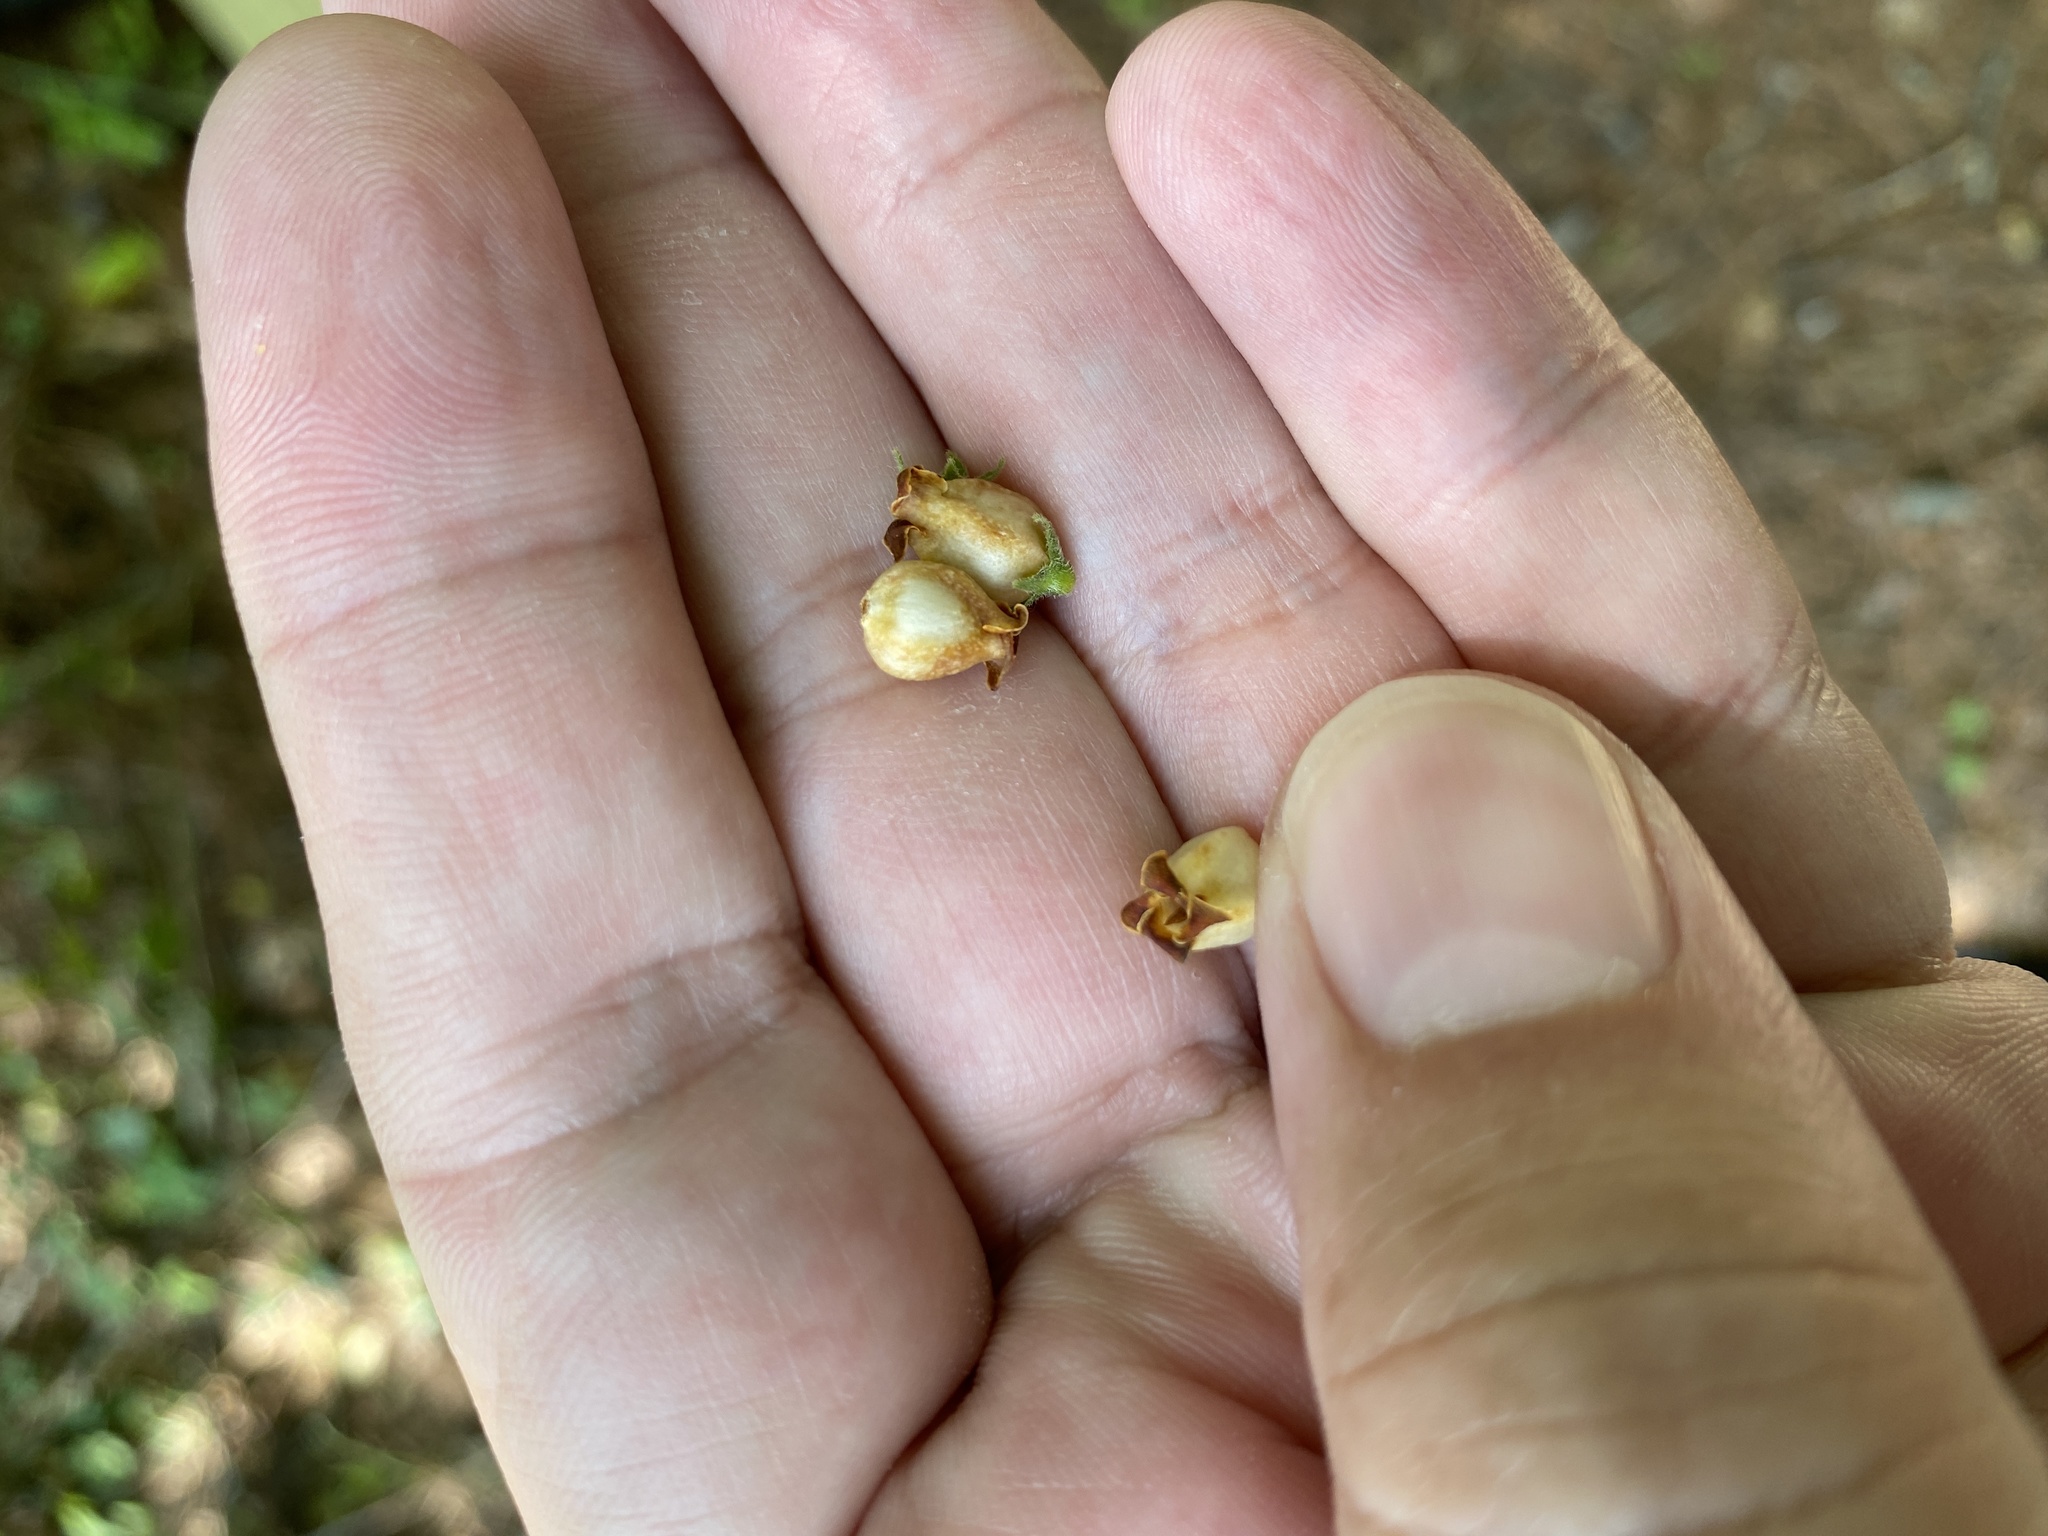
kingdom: Plantae
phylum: Tracheophyta
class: Magnoliopsida
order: Ericales
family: Ebenaceae
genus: Diospyros
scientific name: Diospyros virginiana
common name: Persimmon
